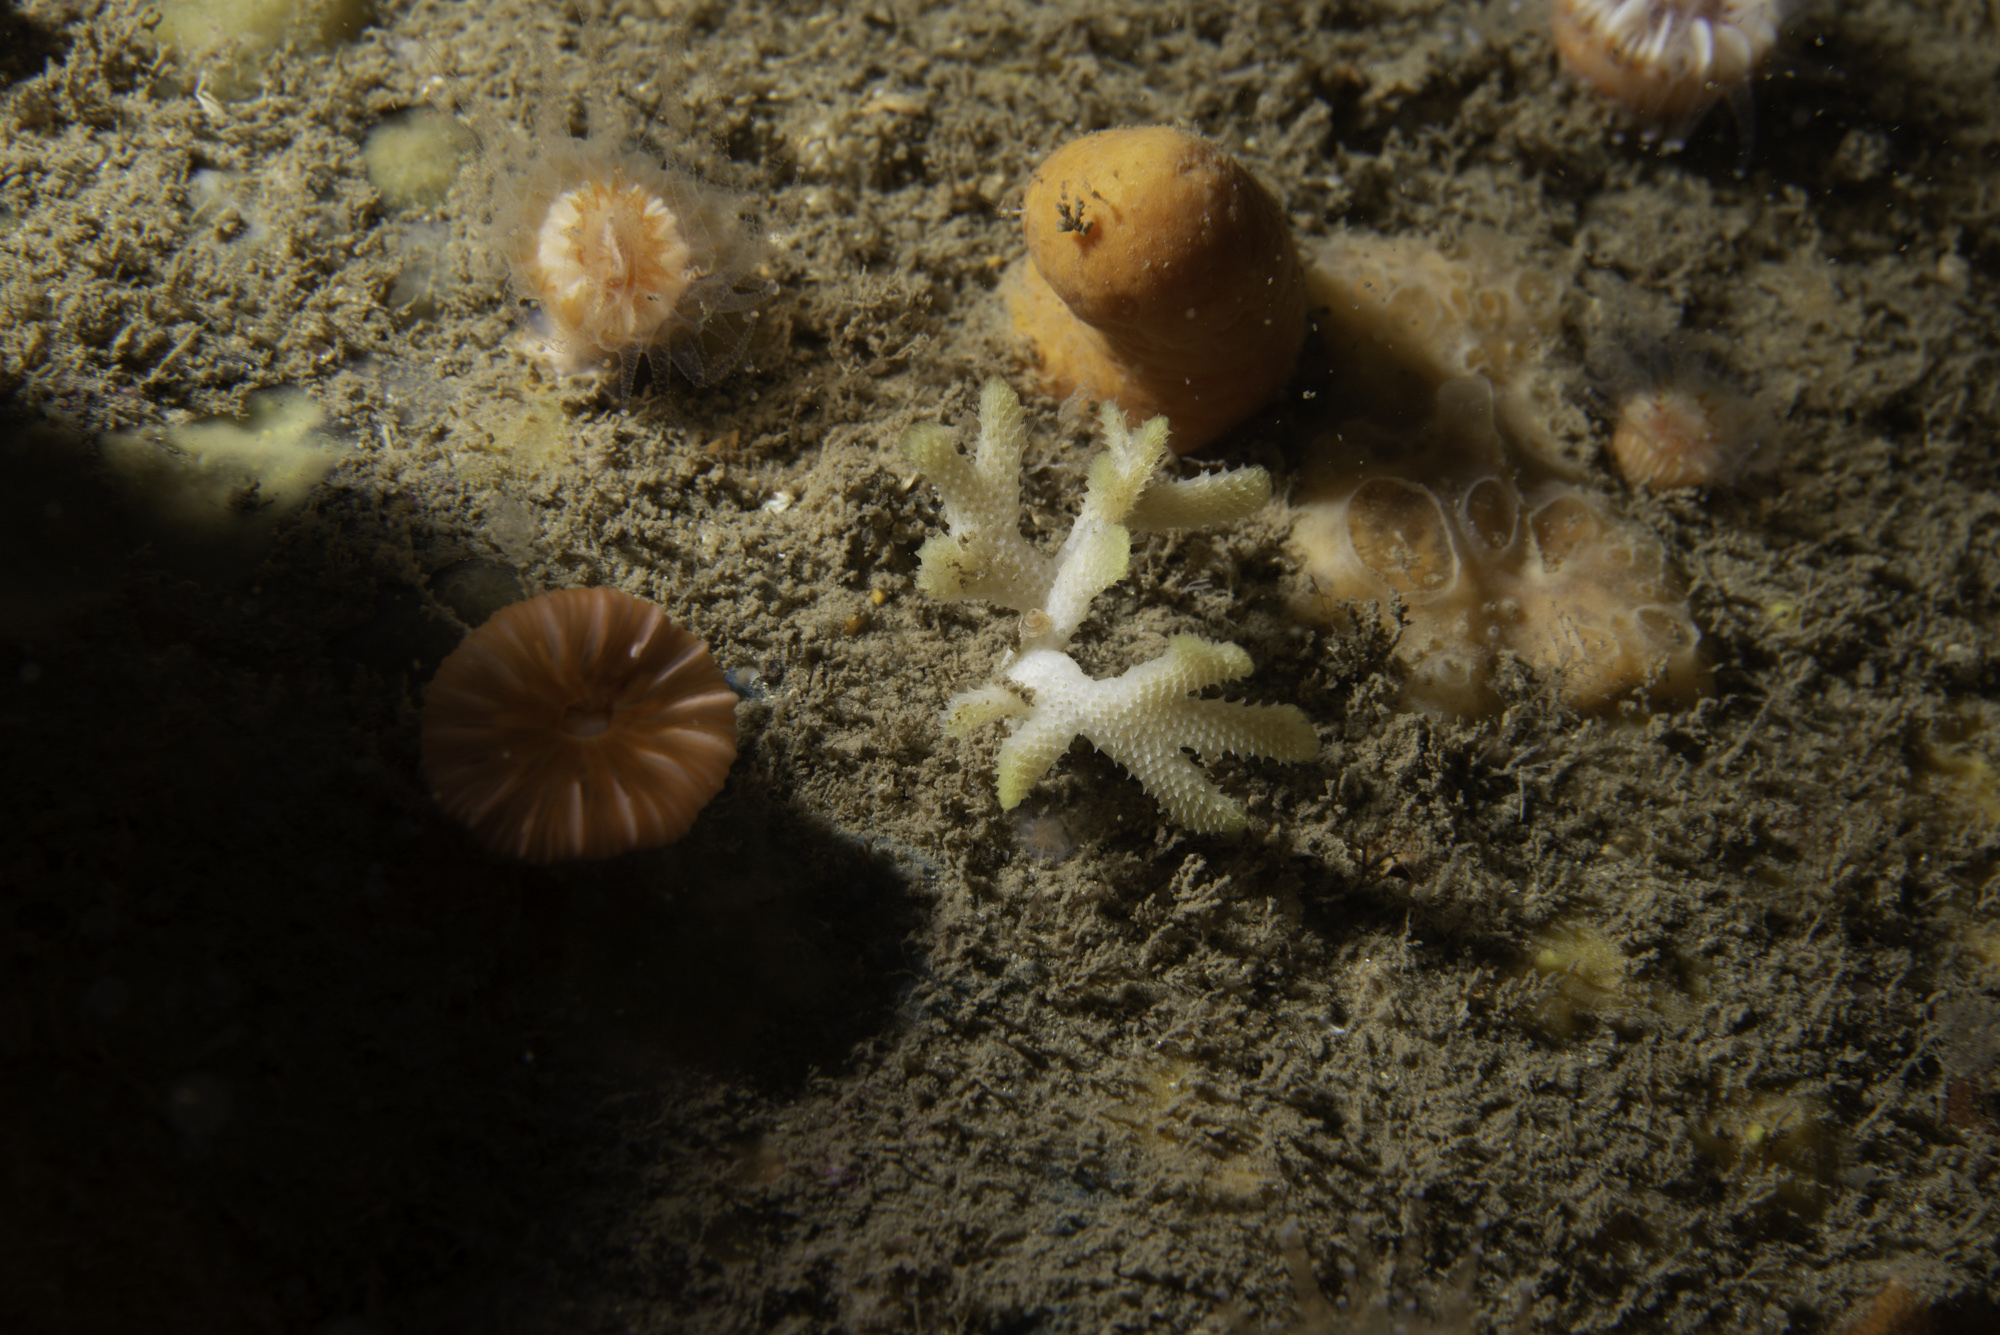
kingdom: Animalia
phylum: Bryozoa
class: Gymnolaemata
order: Cheilostomatida
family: Bryocryptellidae
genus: Palmiskenea
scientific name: Palmiskenea skenei
